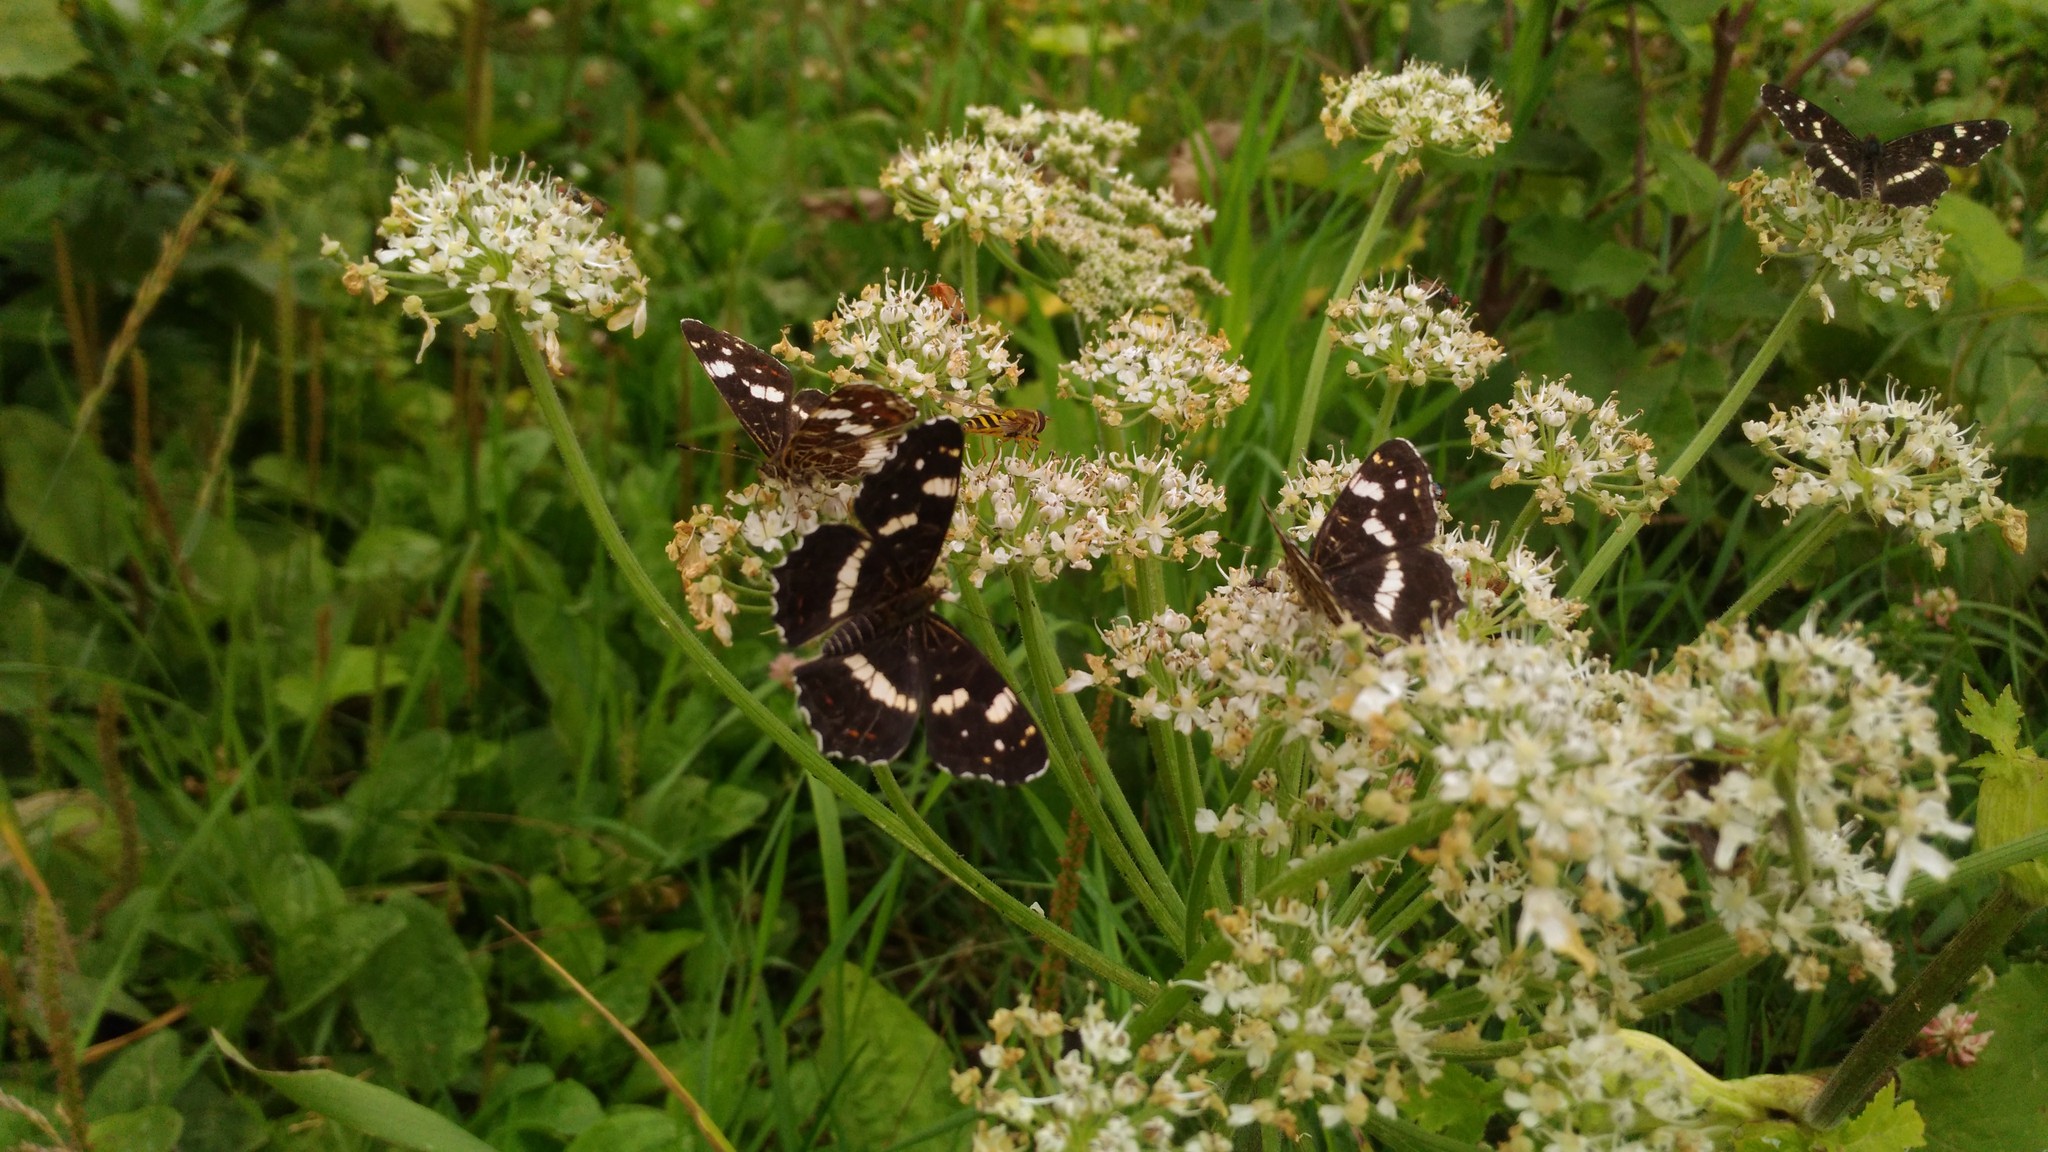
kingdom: Animalia
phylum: Arthropoda
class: Insecta
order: Lepidoptera
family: Nymphalidae
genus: Araschnia
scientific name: Araschnia levana
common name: Map butterfly
